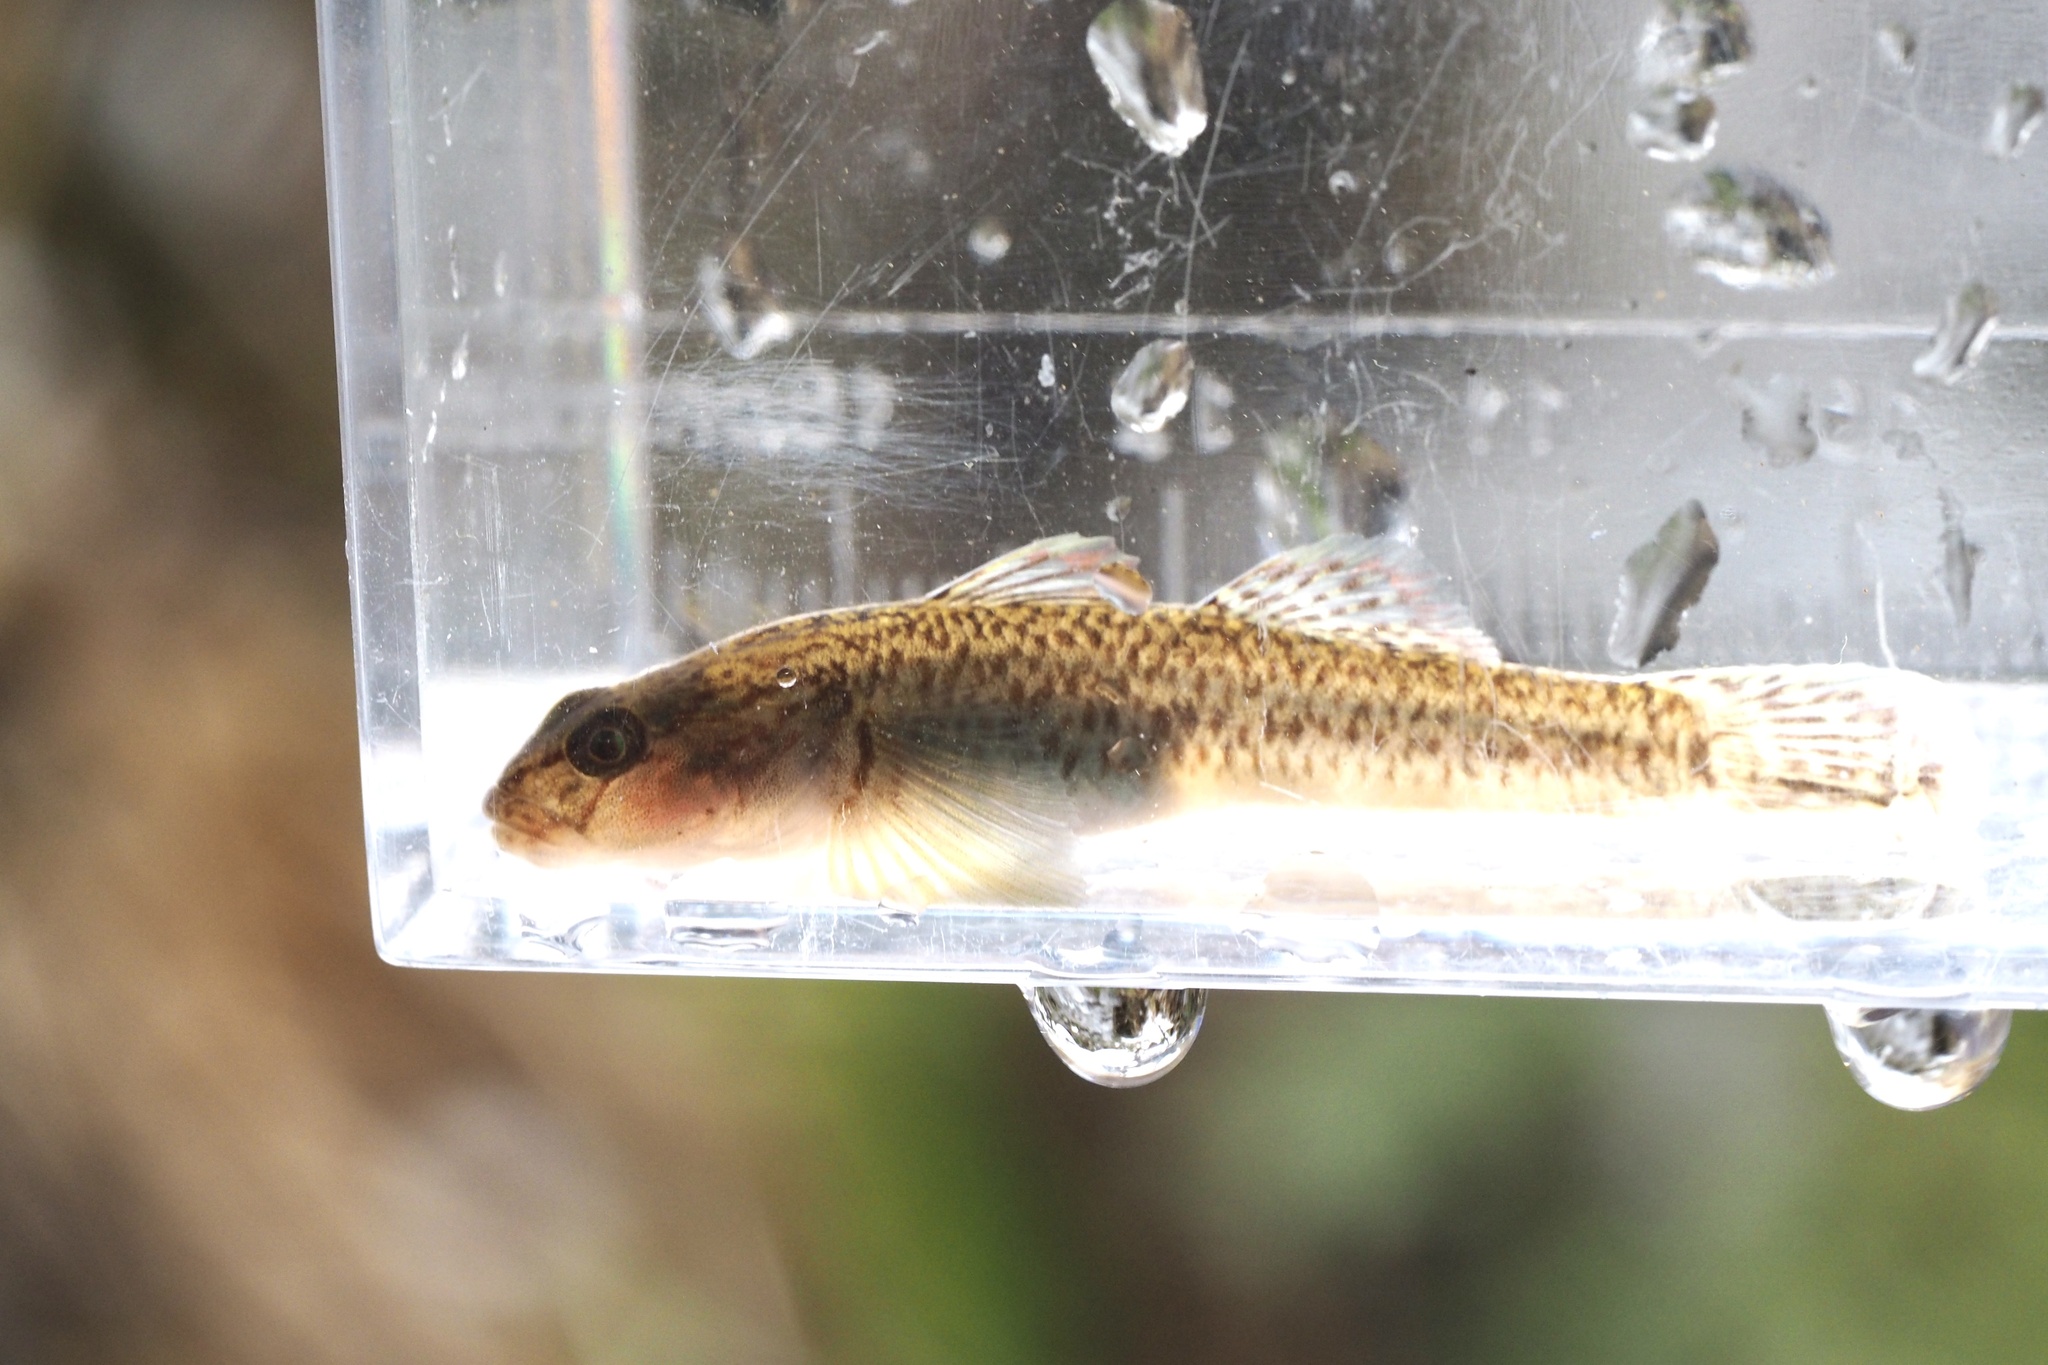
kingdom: Animalia
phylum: Chordata
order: Perciformes
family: Gobiidae
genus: Rhinogobius
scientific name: Rhinogobius flumineus
